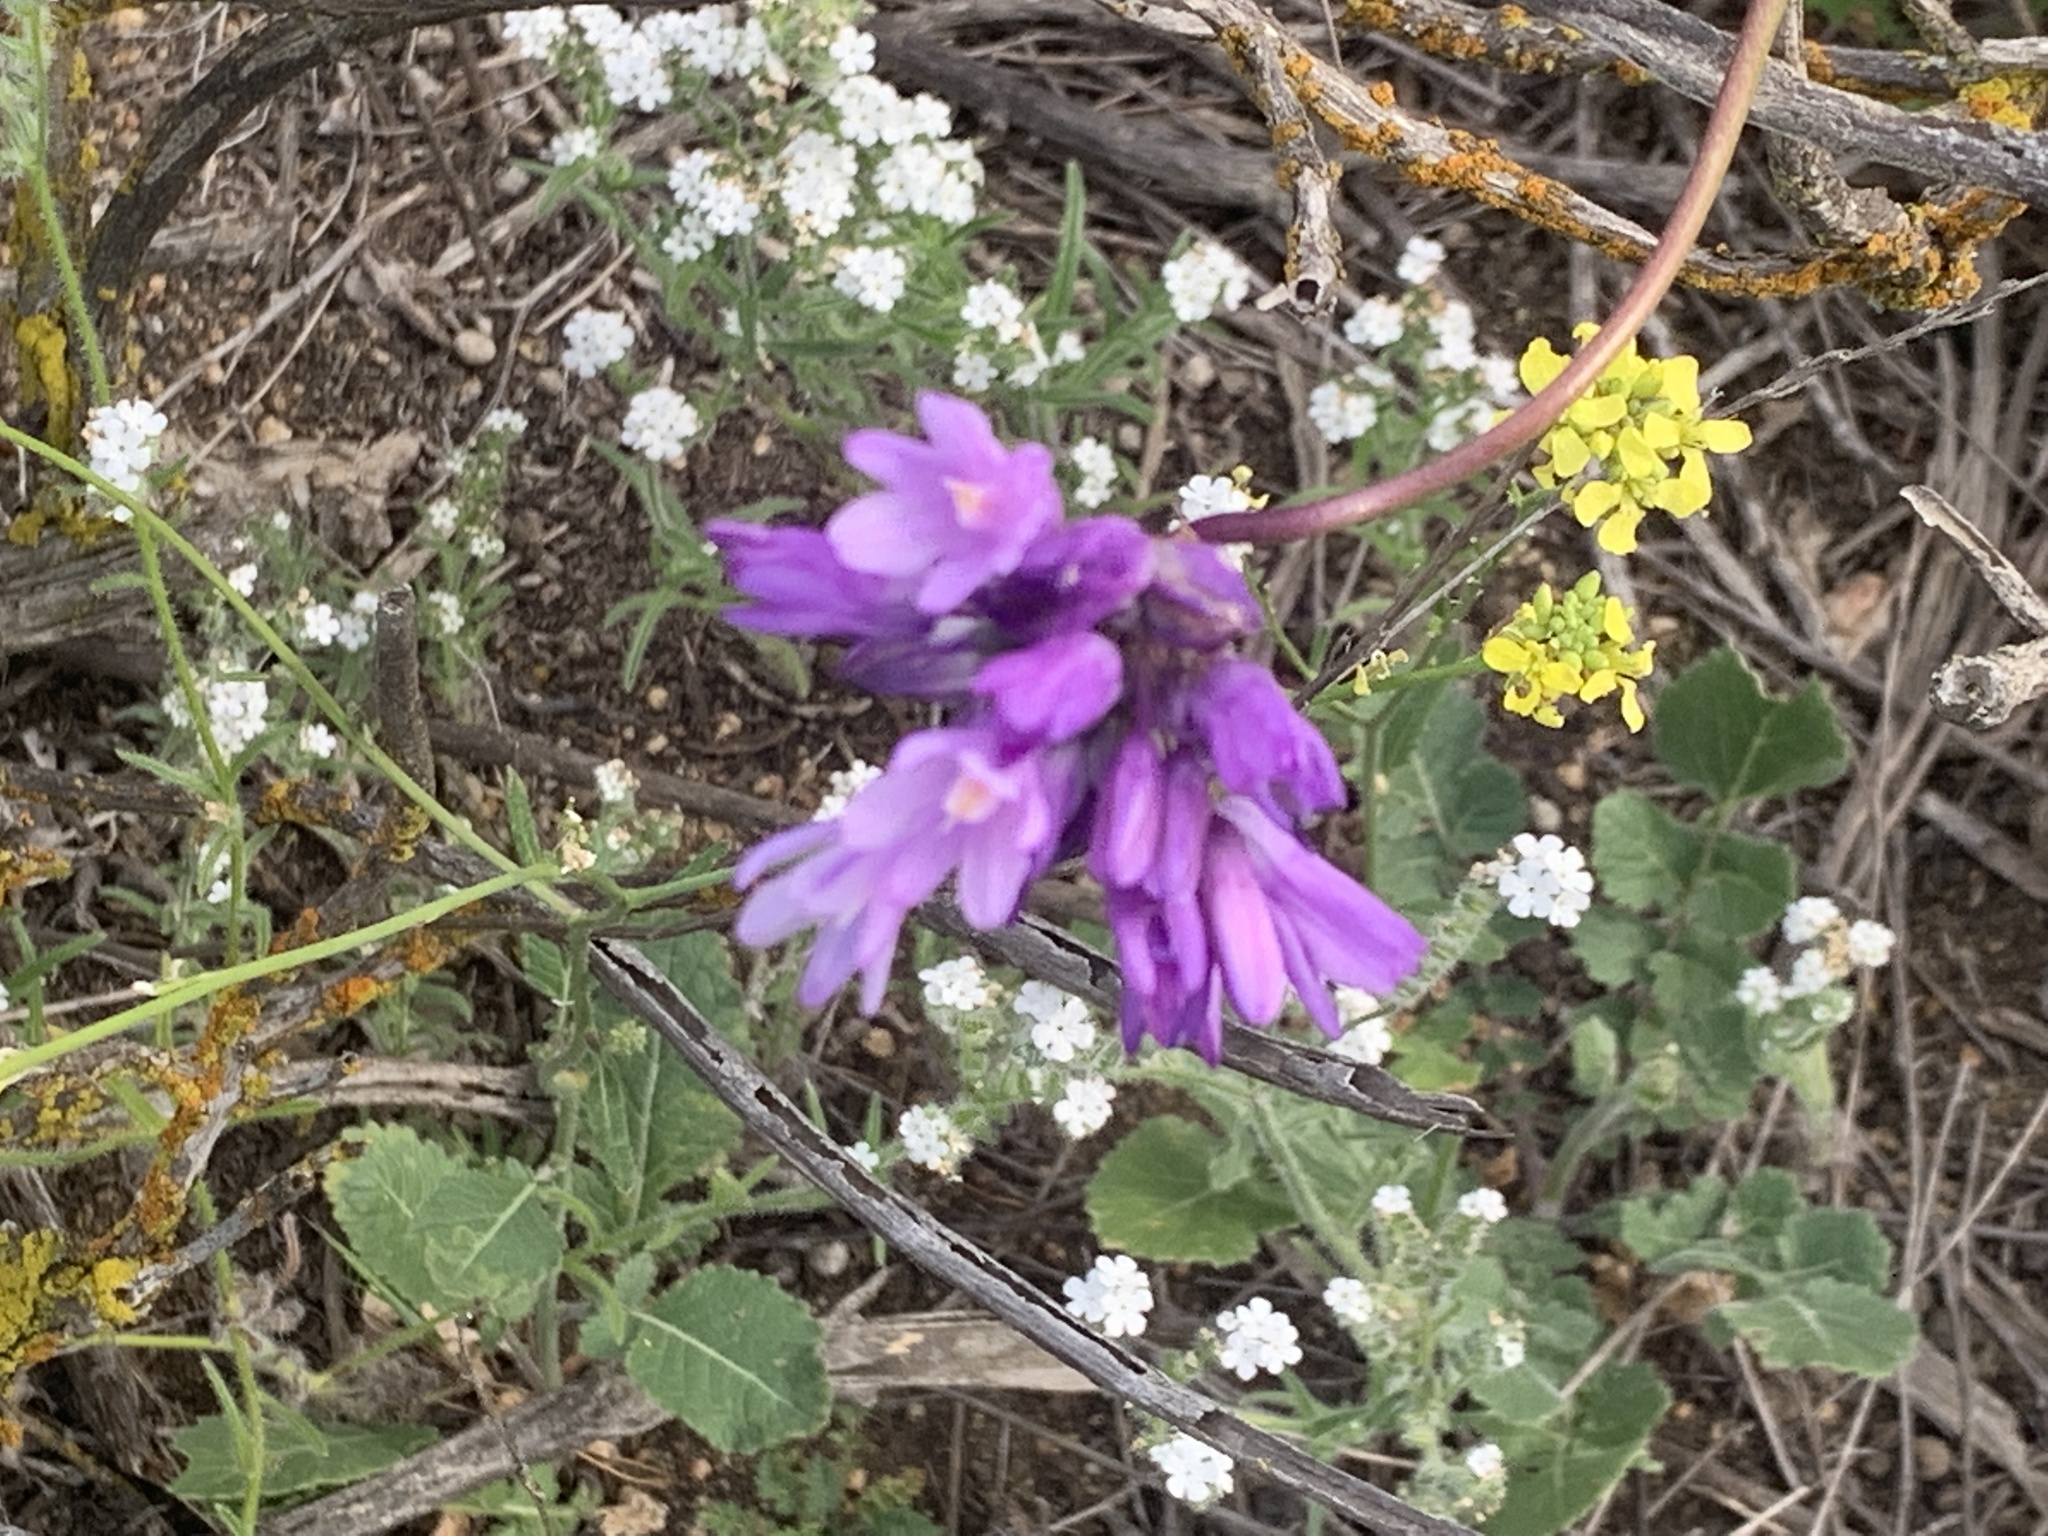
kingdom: Plantae
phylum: Tracheophyta
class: Liliopsida
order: Asparagales
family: Asparagaceae
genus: Dipterostemon
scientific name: Dipterostemon capitatus
